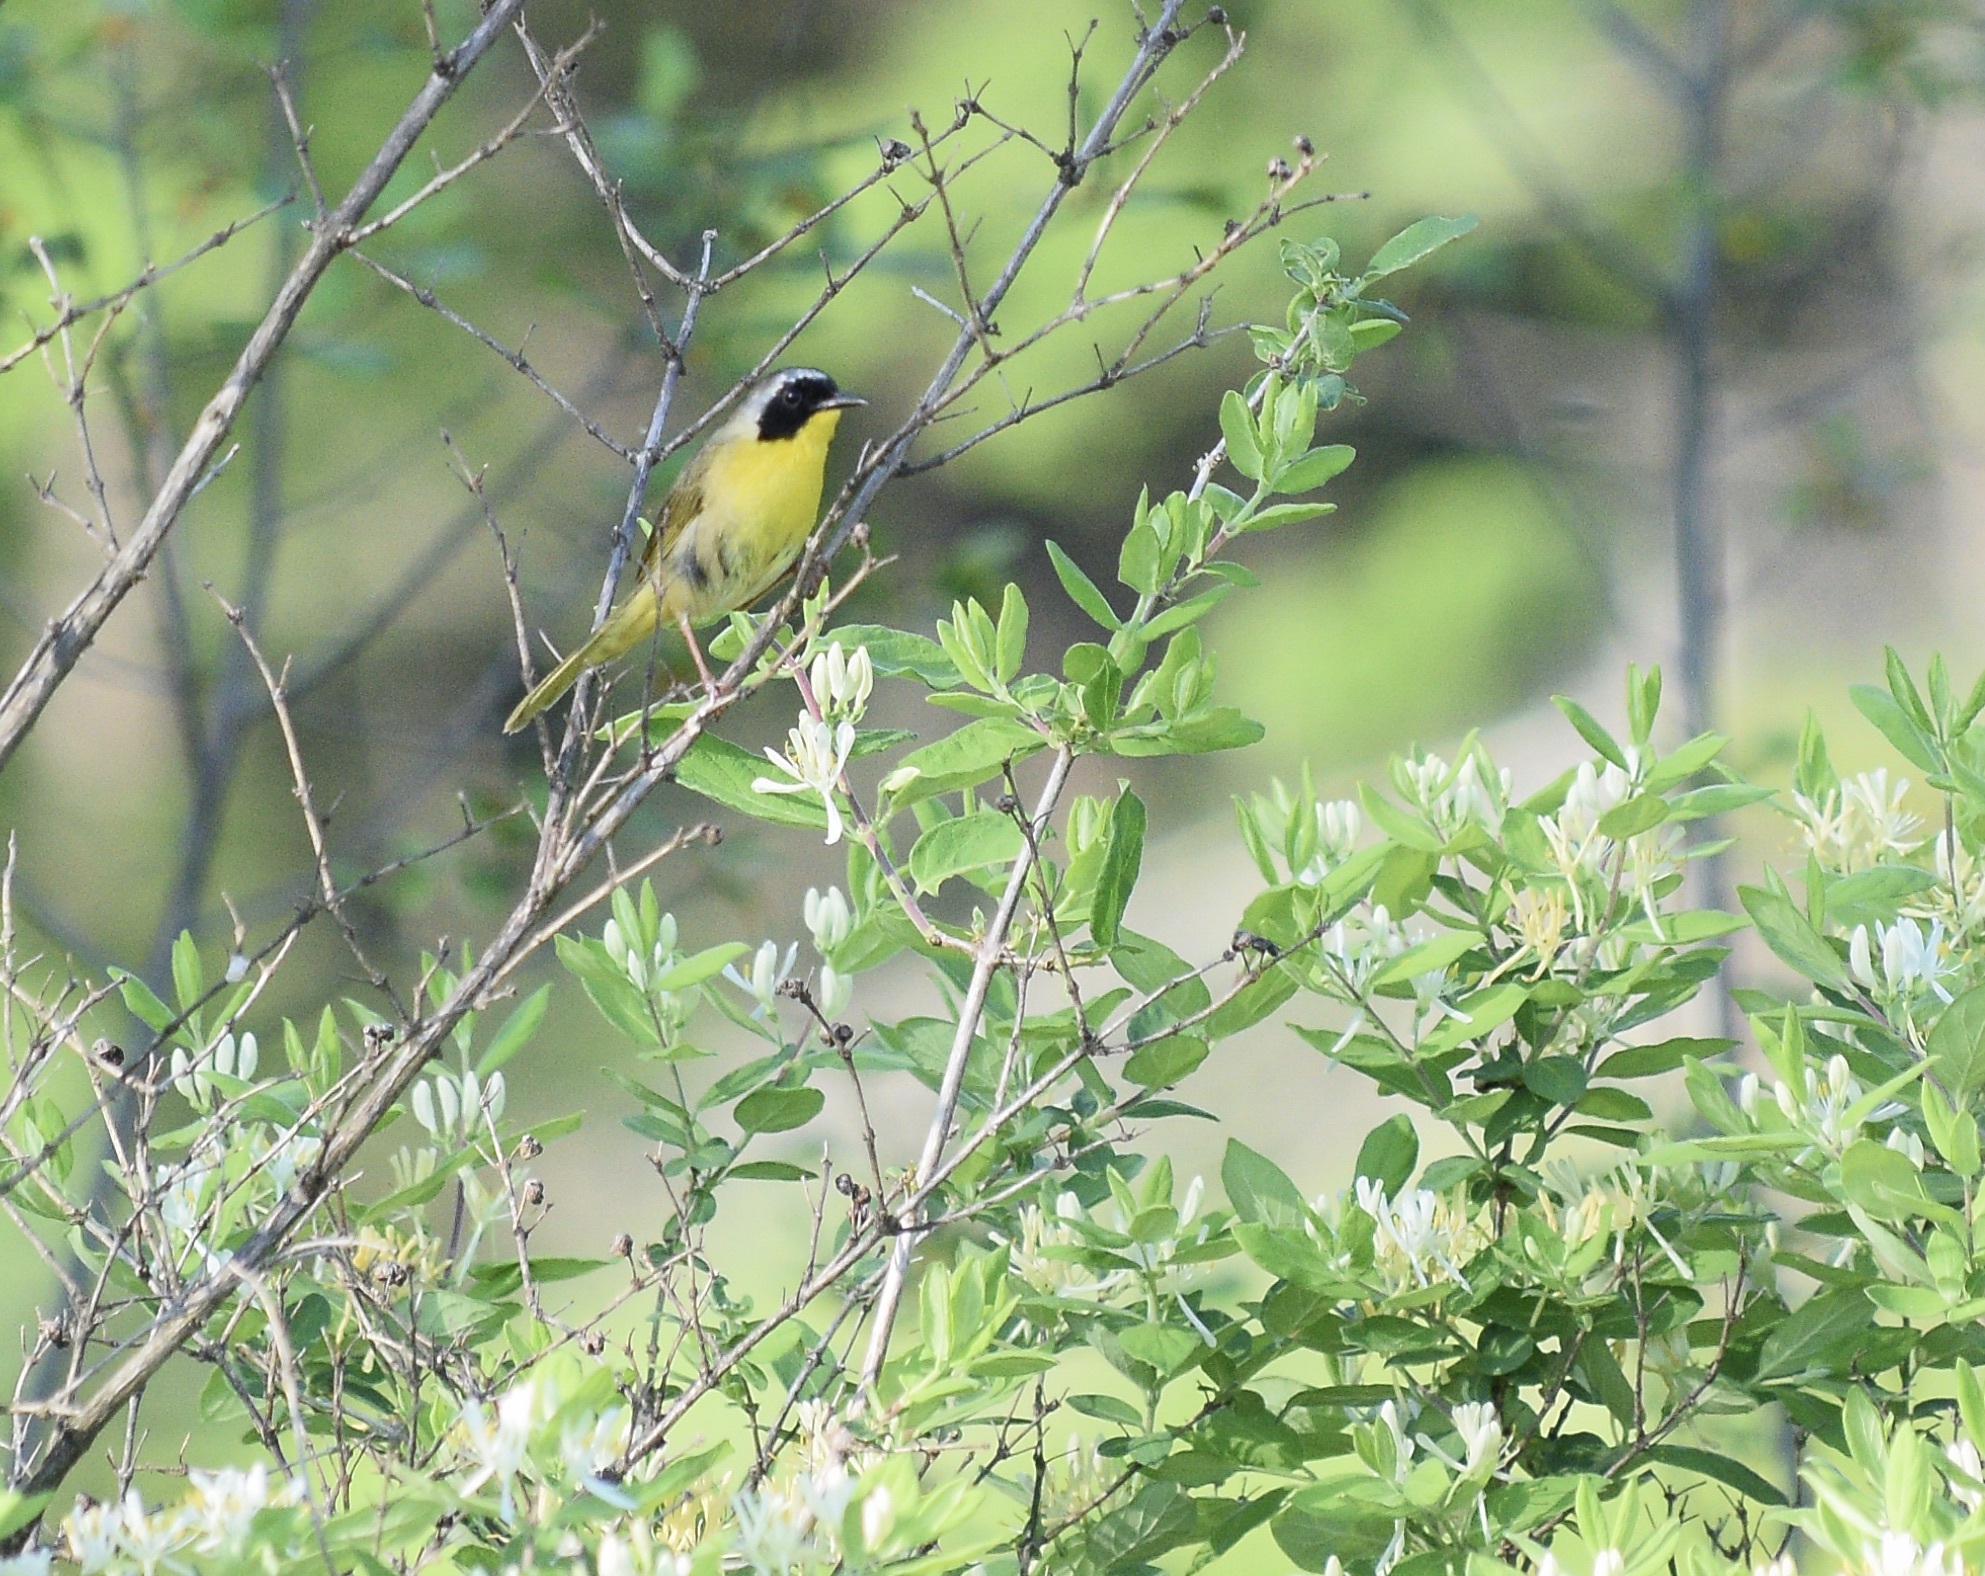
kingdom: Animalia
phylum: Chordata
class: Aves
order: Passeriformes
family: Parulidae
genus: Geothlypis
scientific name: Geothlypis trichas
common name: Common yellowthroat
